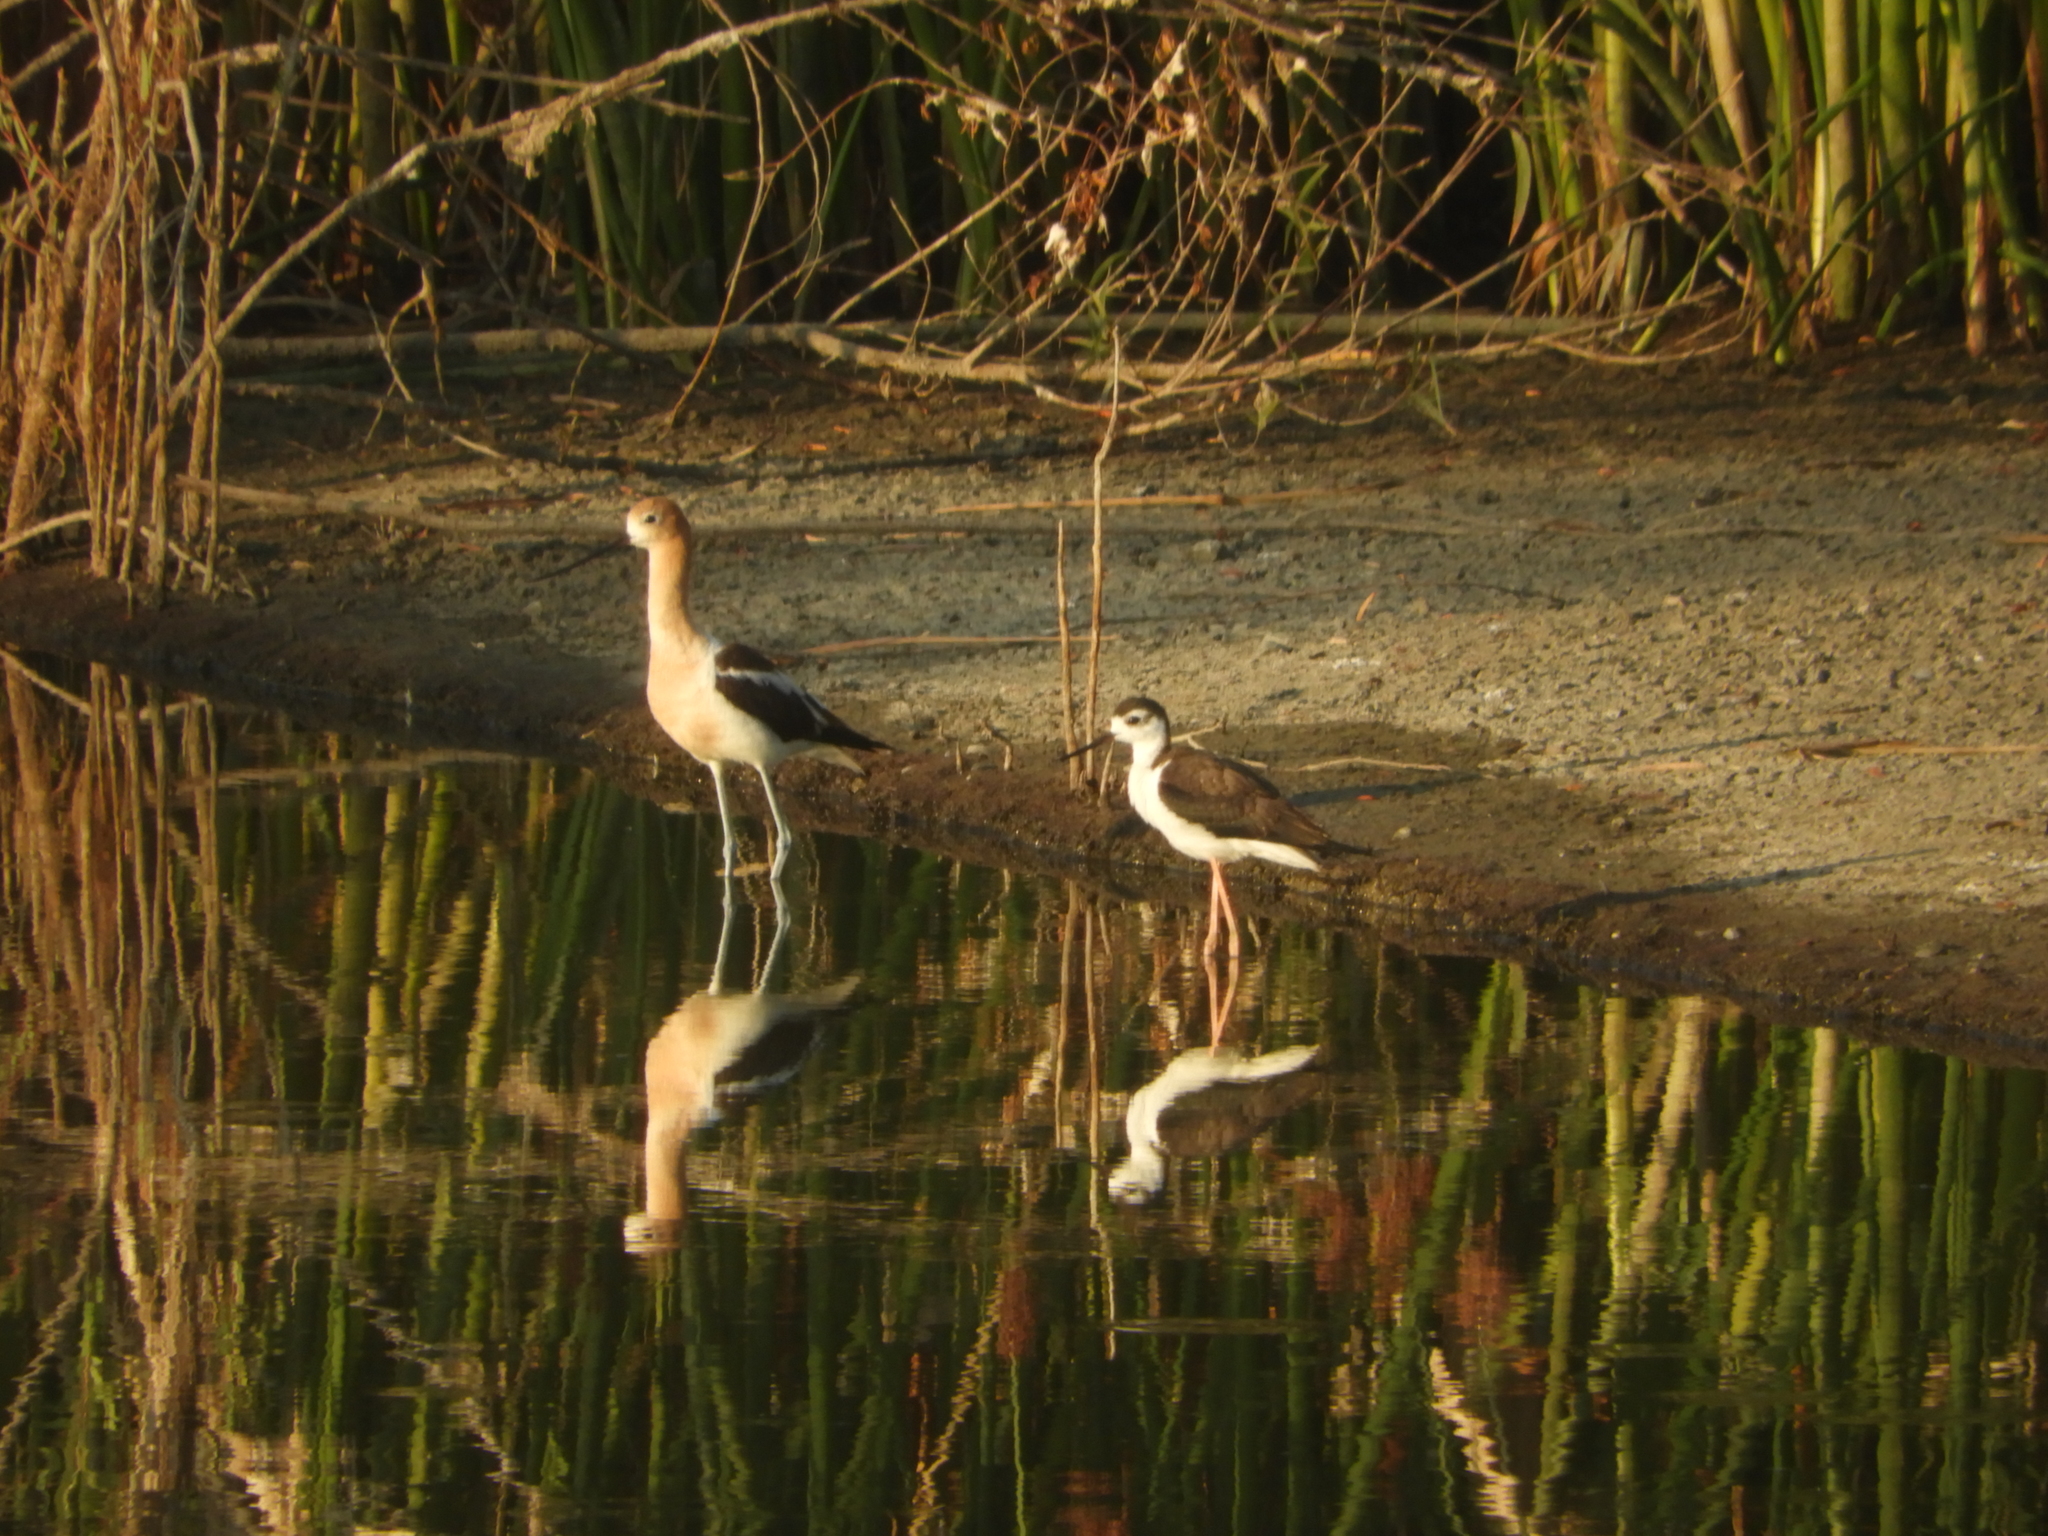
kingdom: Animalia
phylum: Chordata
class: Aves
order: Charadriiformes
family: Recurvirostridae
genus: Recurvirostra
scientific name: Recurvirostra americana
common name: American avocet
